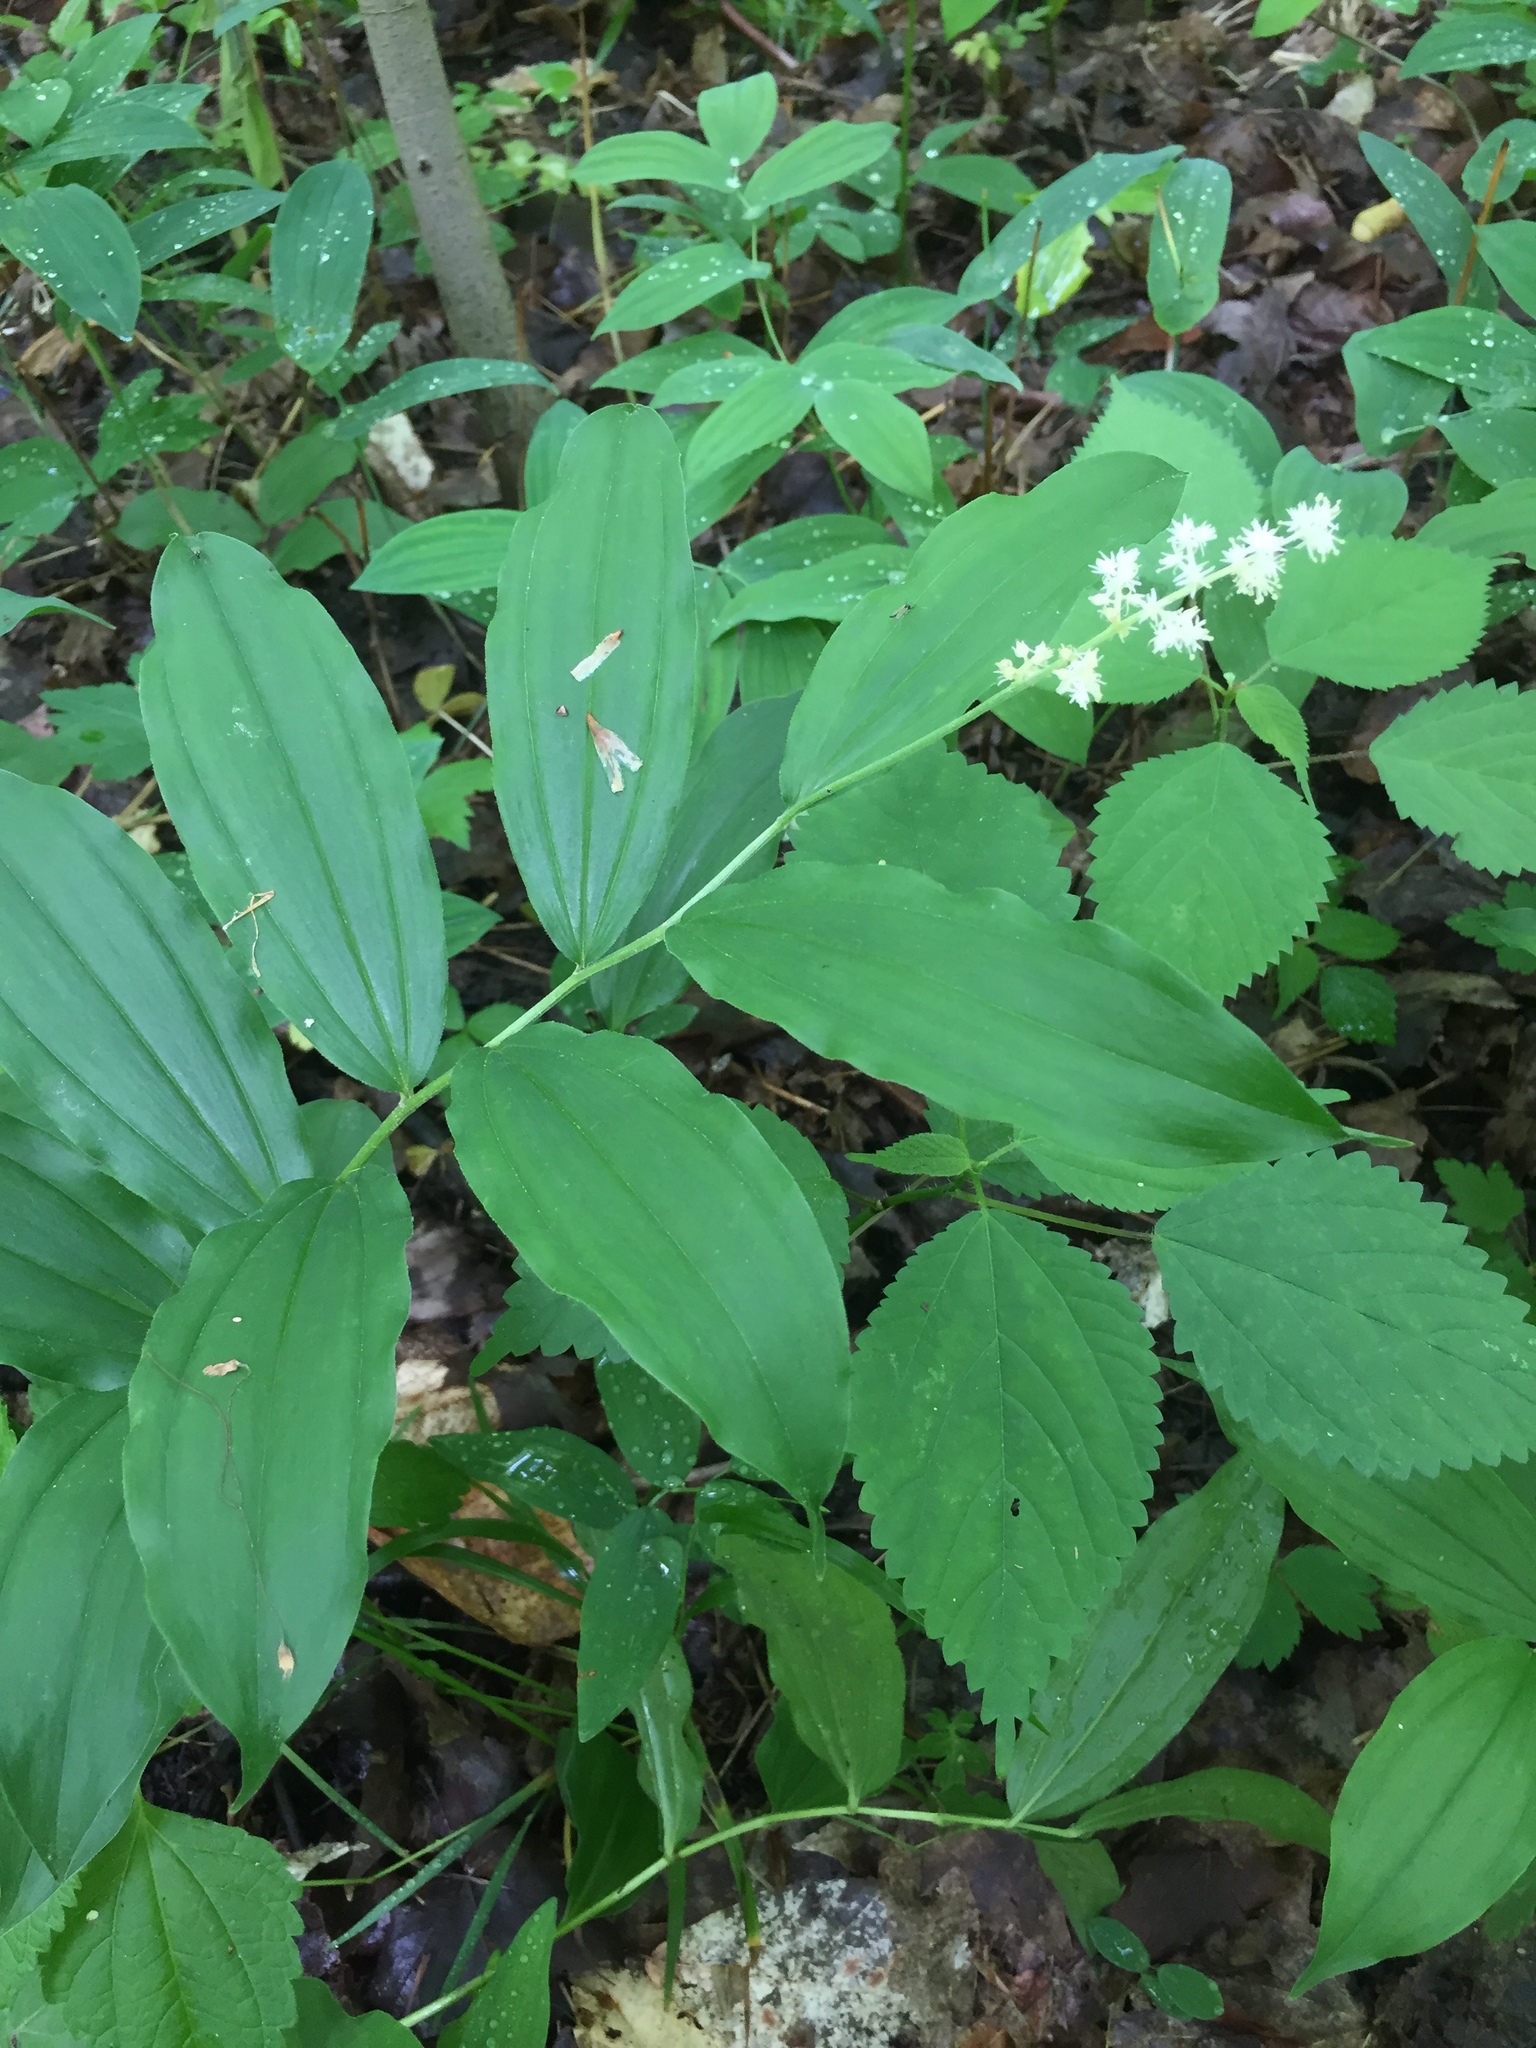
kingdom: Plantae
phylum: Tracheophyta
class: Liliopsida
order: Asparagales
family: Asparagaceae
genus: Maianthemum
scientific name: Maianthemum racemosum
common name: False spikenard
